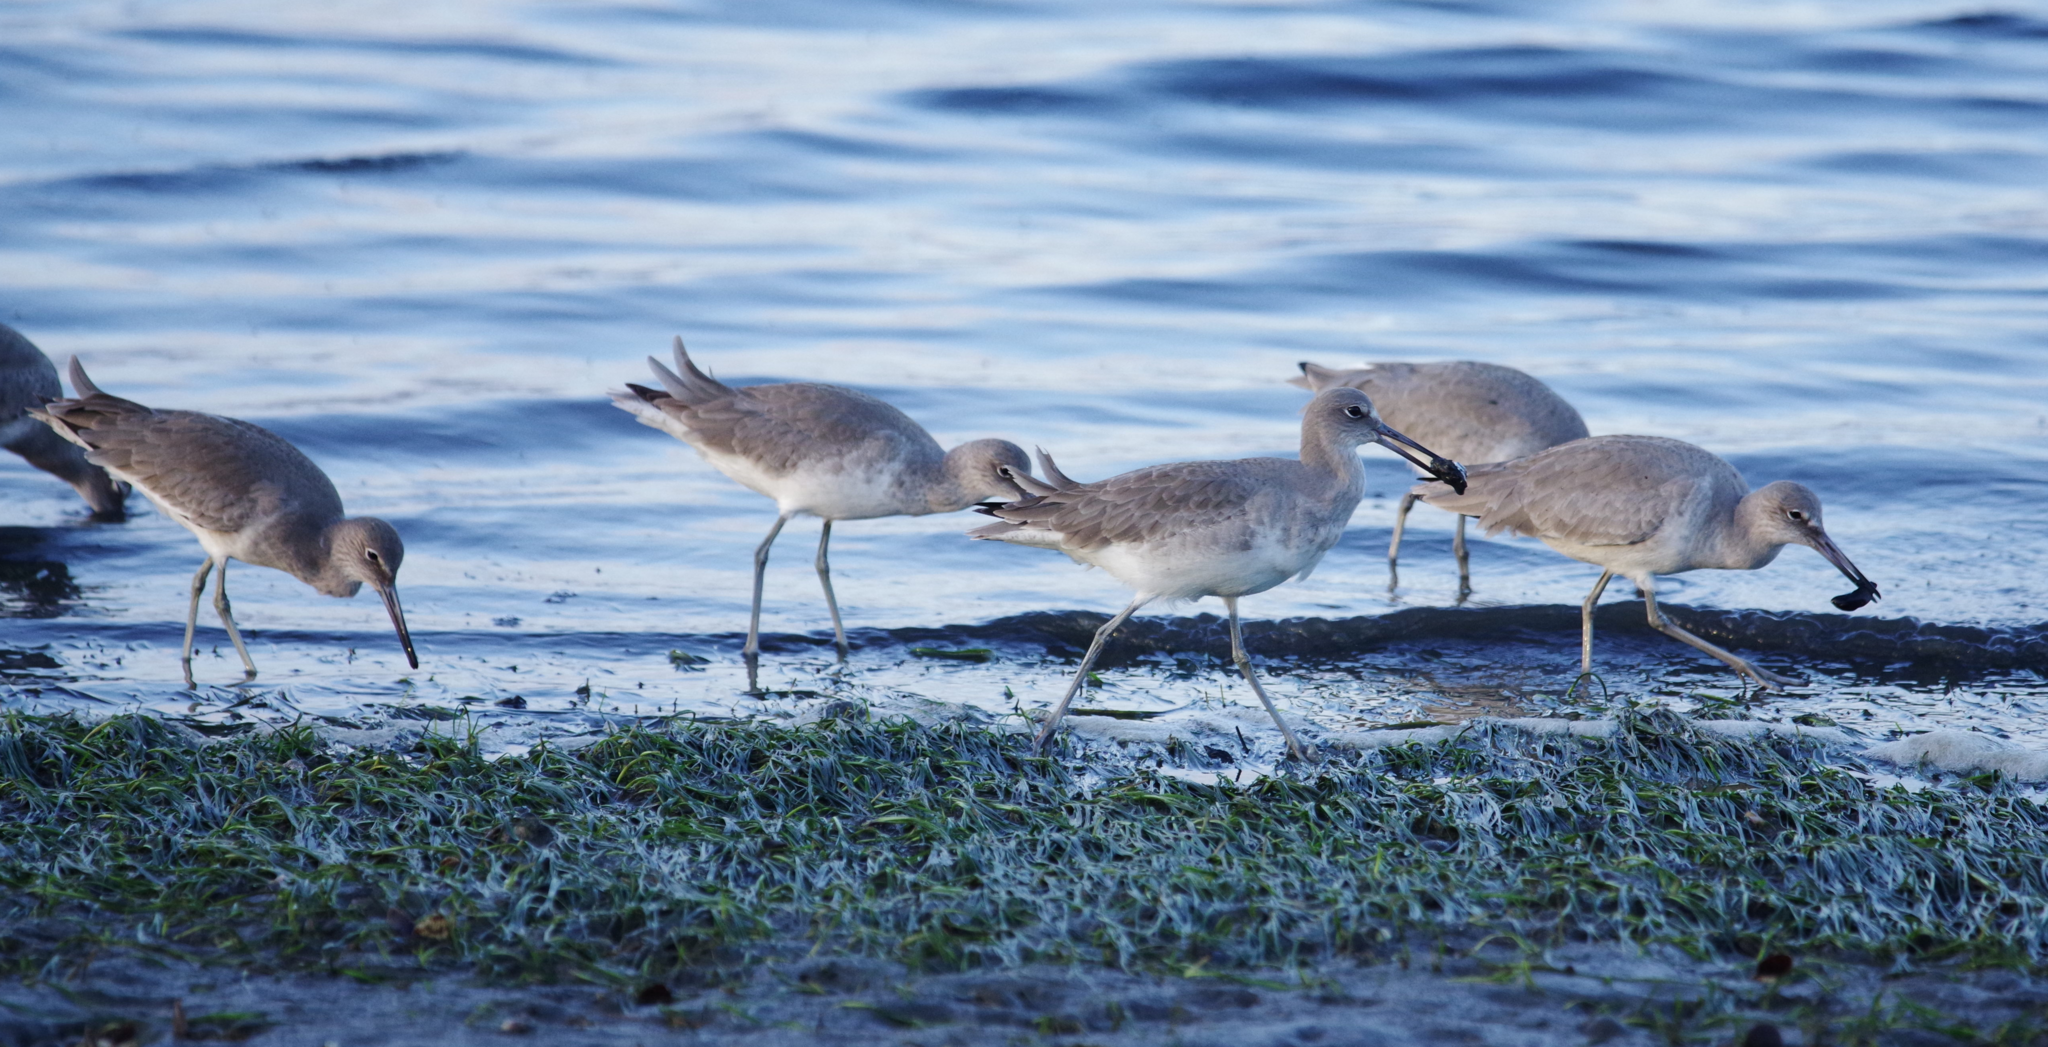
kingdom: Animalia
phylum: Chordata
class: Aves
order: Charadriiformes
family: Scolopacidae
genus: Tringa
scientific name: Tringa semipalmata
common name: Willet
